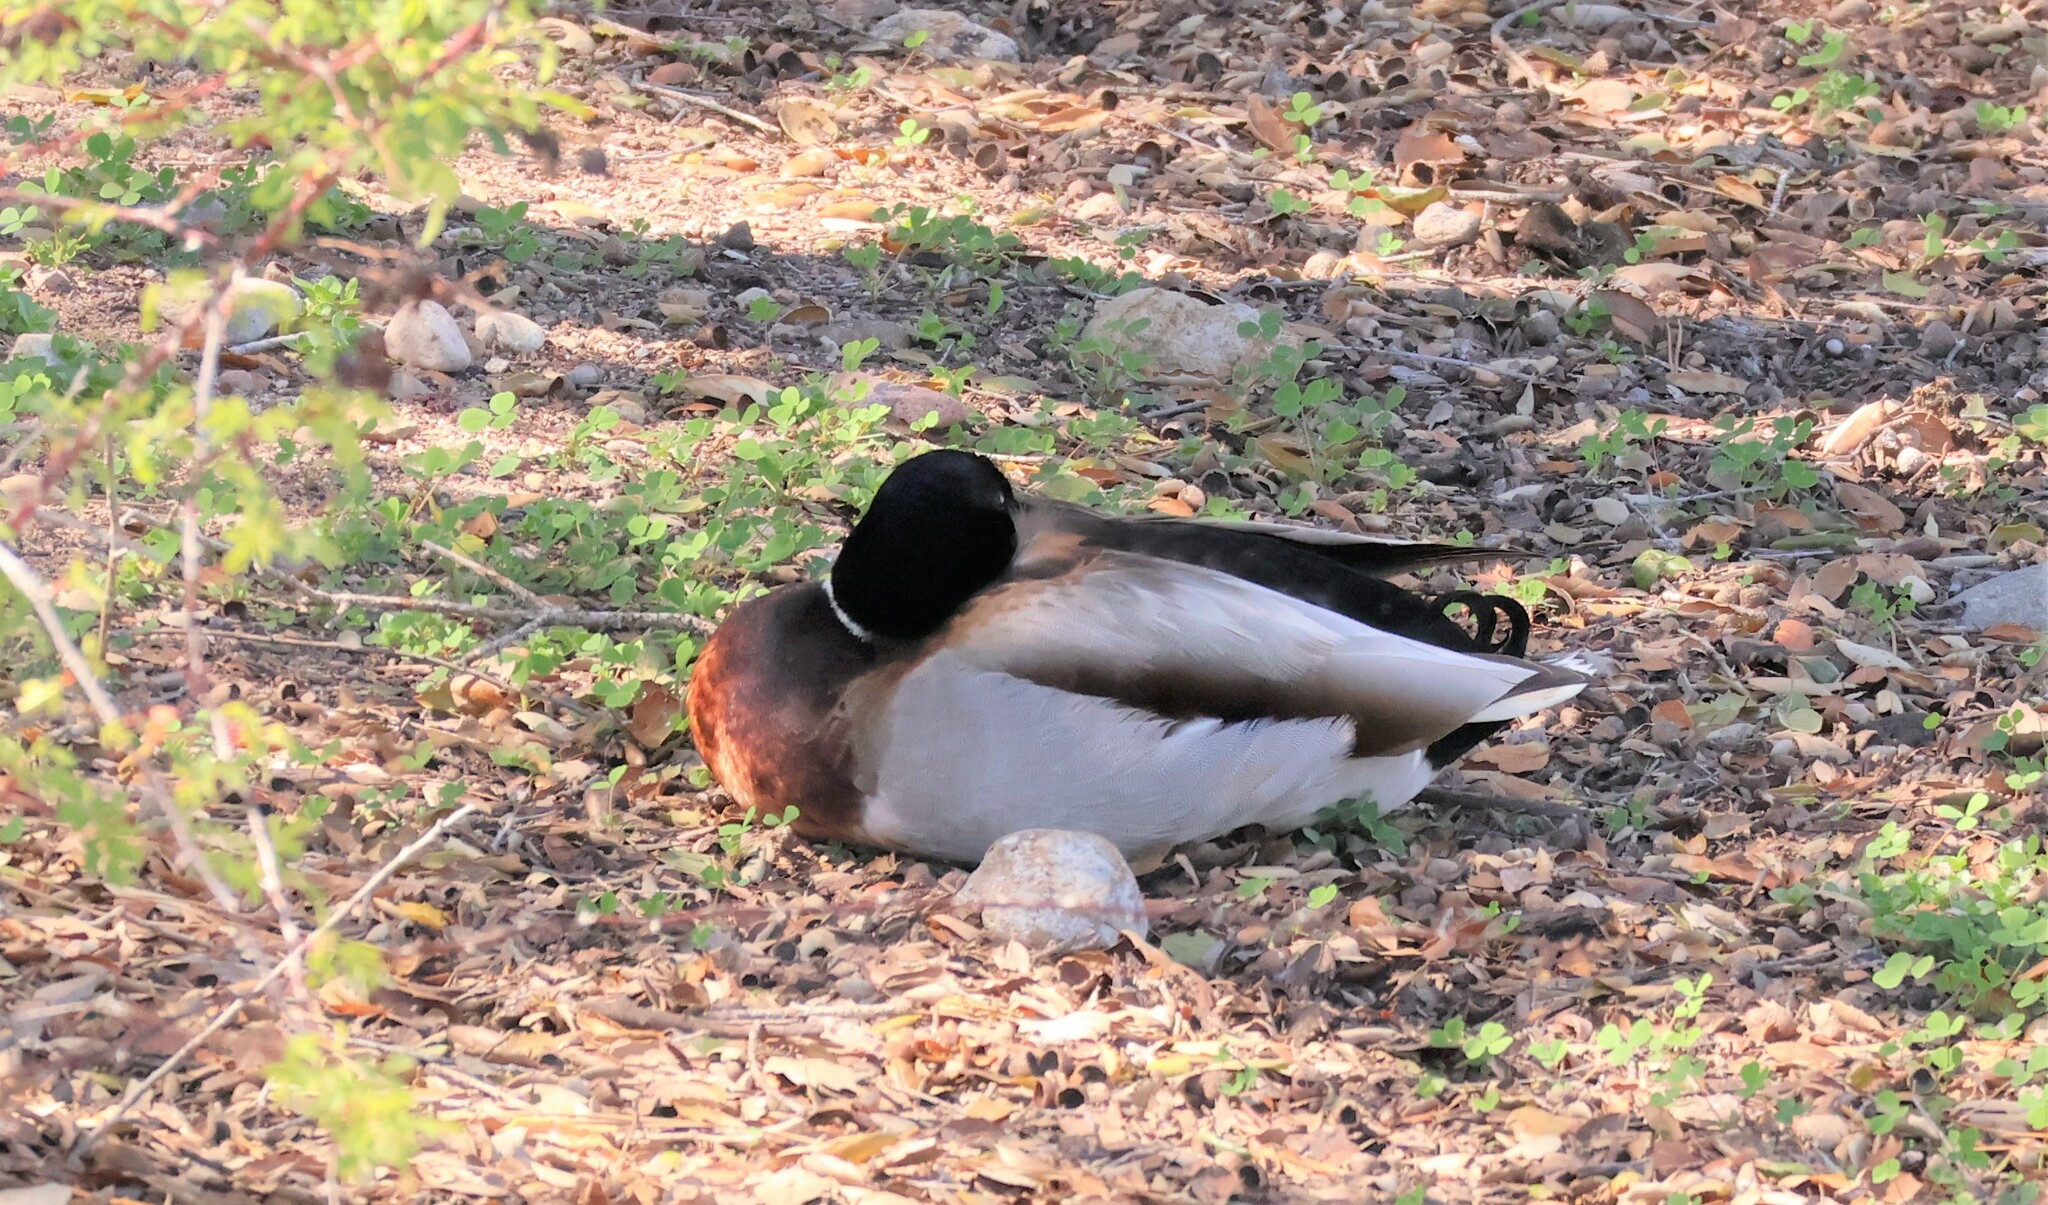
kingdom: Animalia
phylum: Chordata
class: Aves
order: Anseriformes
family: Anatidae
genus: Anas
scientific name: Anas platyrhynchos
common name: Mallard
